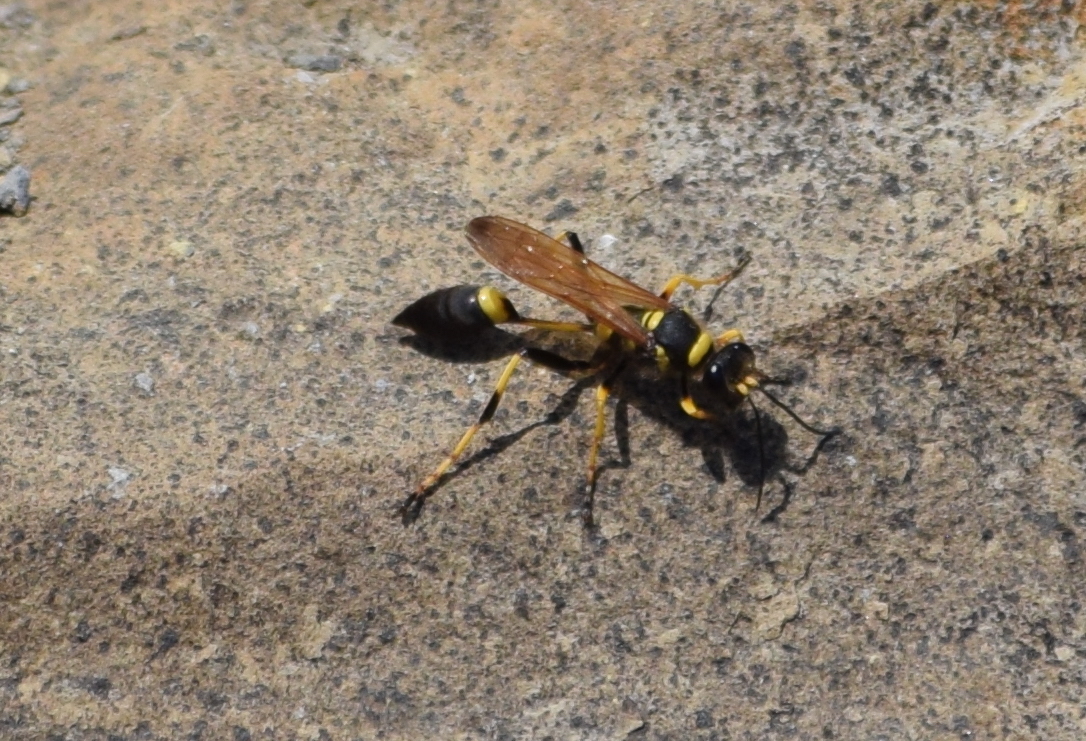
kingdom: Animalia
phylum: Arthropoda
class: Insecta
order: Hymenoptera
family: Sphecidae
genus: Sceliphron
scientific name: Sceliphron caementarium
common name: Mud dauber
